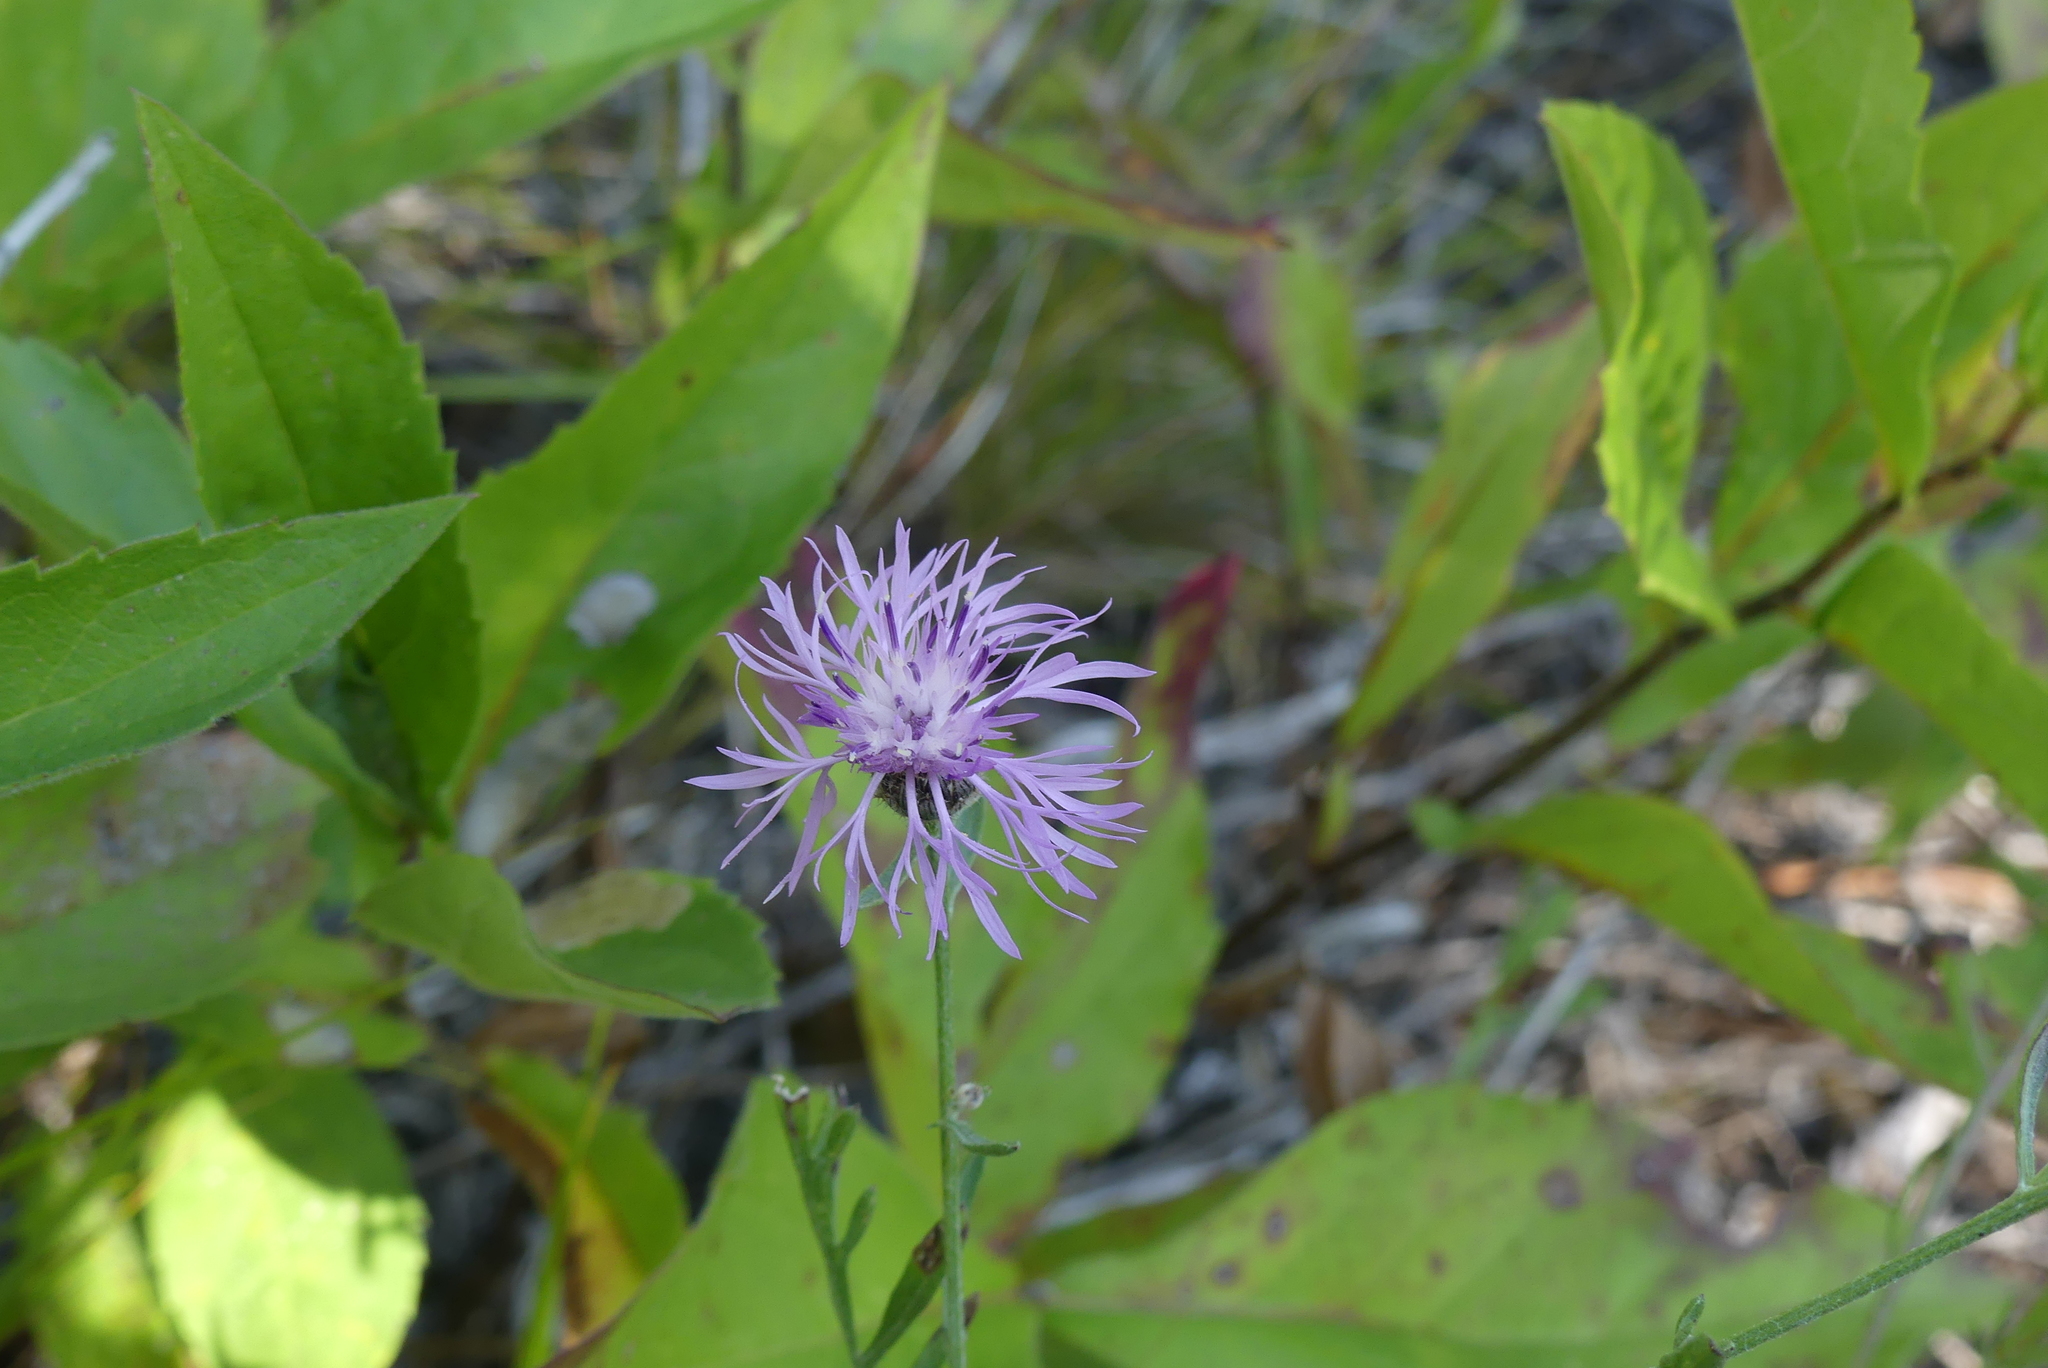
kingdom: Plantae
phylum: Tracheophyta
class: Magnoliopsida
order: Asterales
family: Asteraceae
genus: Centaurea
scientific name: Centaurea stoebe
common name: Spotted knapweed
